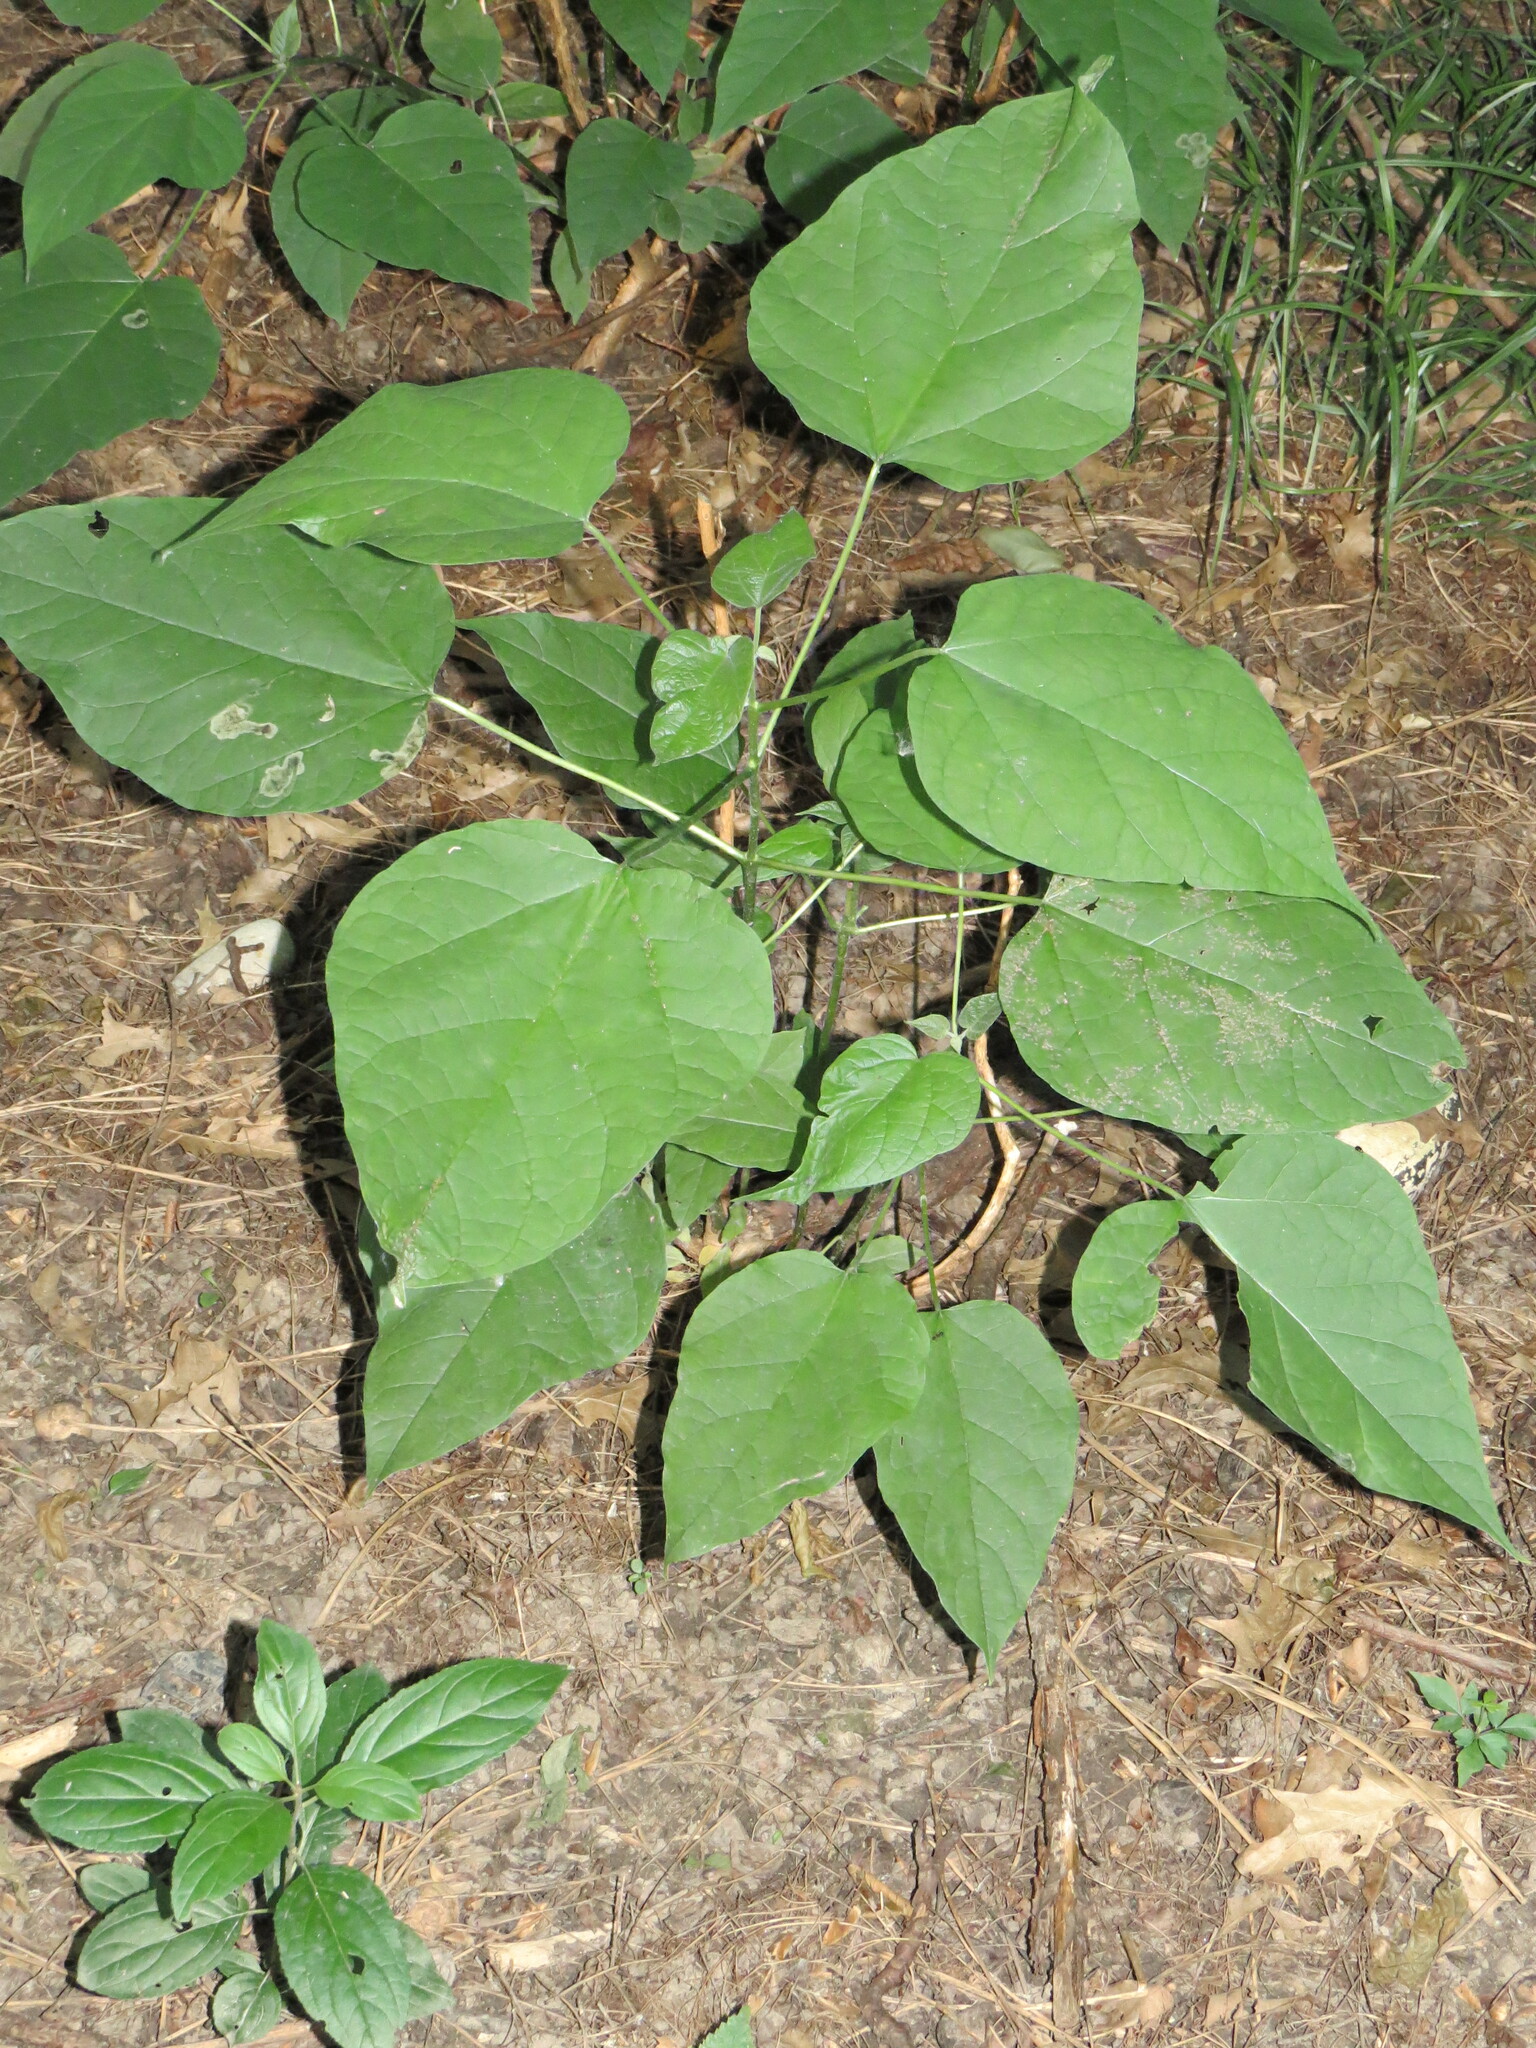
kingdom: Plantae
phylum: Tracheophyta
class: Magnoliopsida
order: Lamiales
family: Bignoniaceae
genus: Catalpa
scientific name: Catalpa speciosa
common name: Northern catalpa
